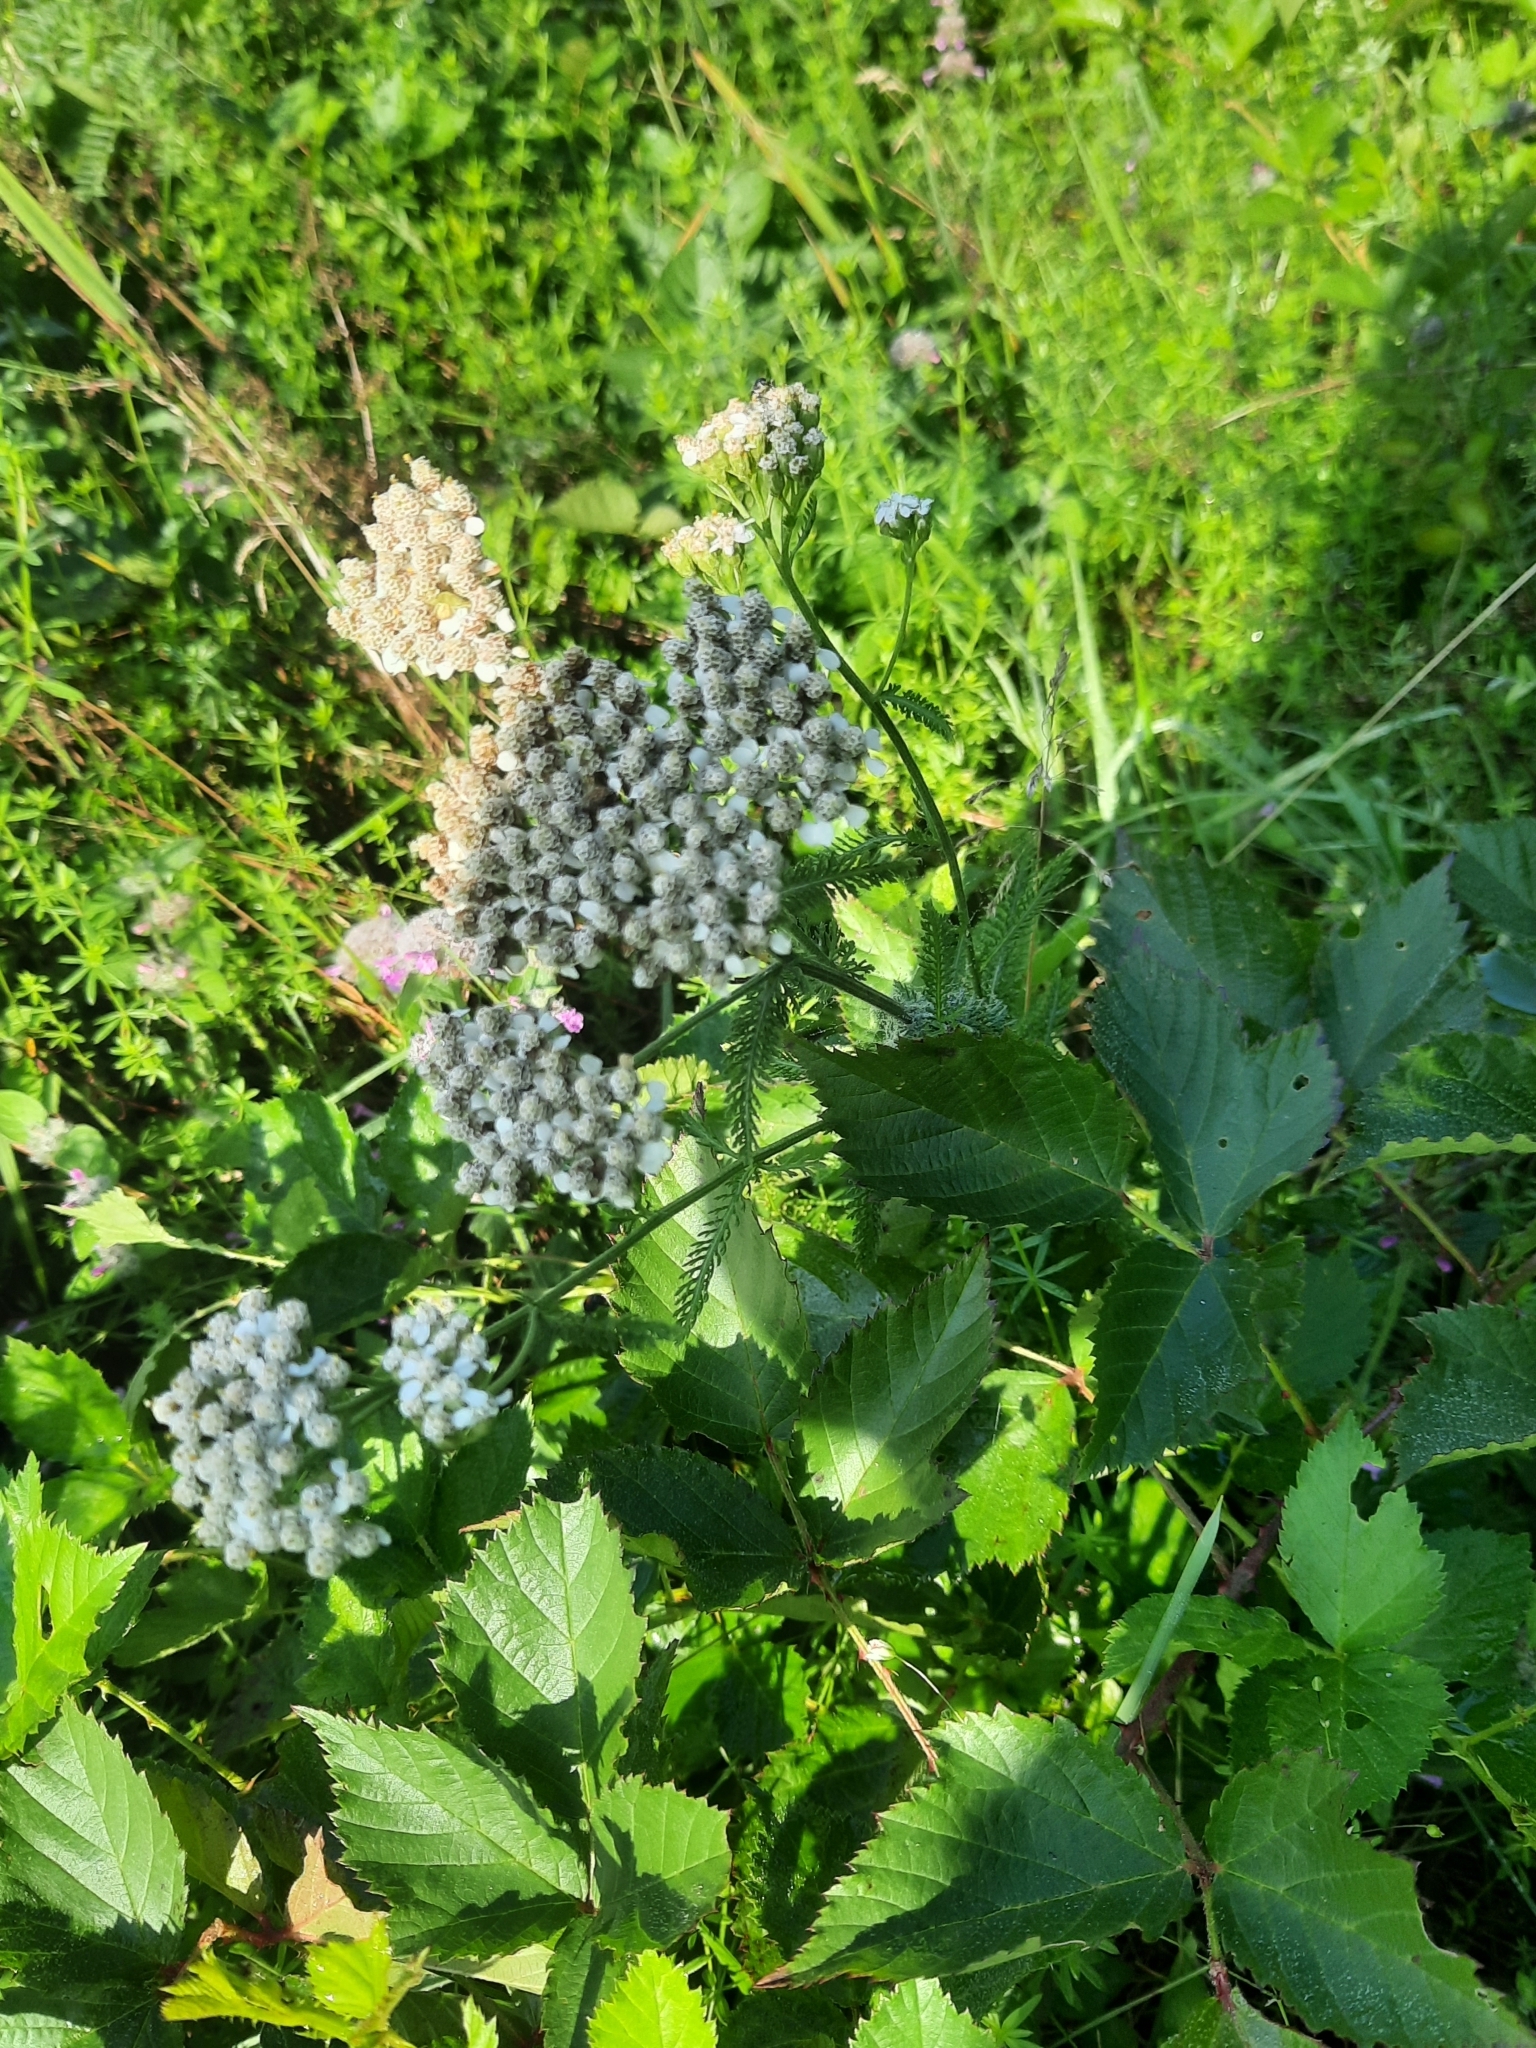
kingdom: Plantae
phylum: Tracheophyta
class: Magnoliopsida
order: Asterales
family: Asteraceae
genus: Achillea
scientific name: Achillea millefolium
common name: Yarrow
